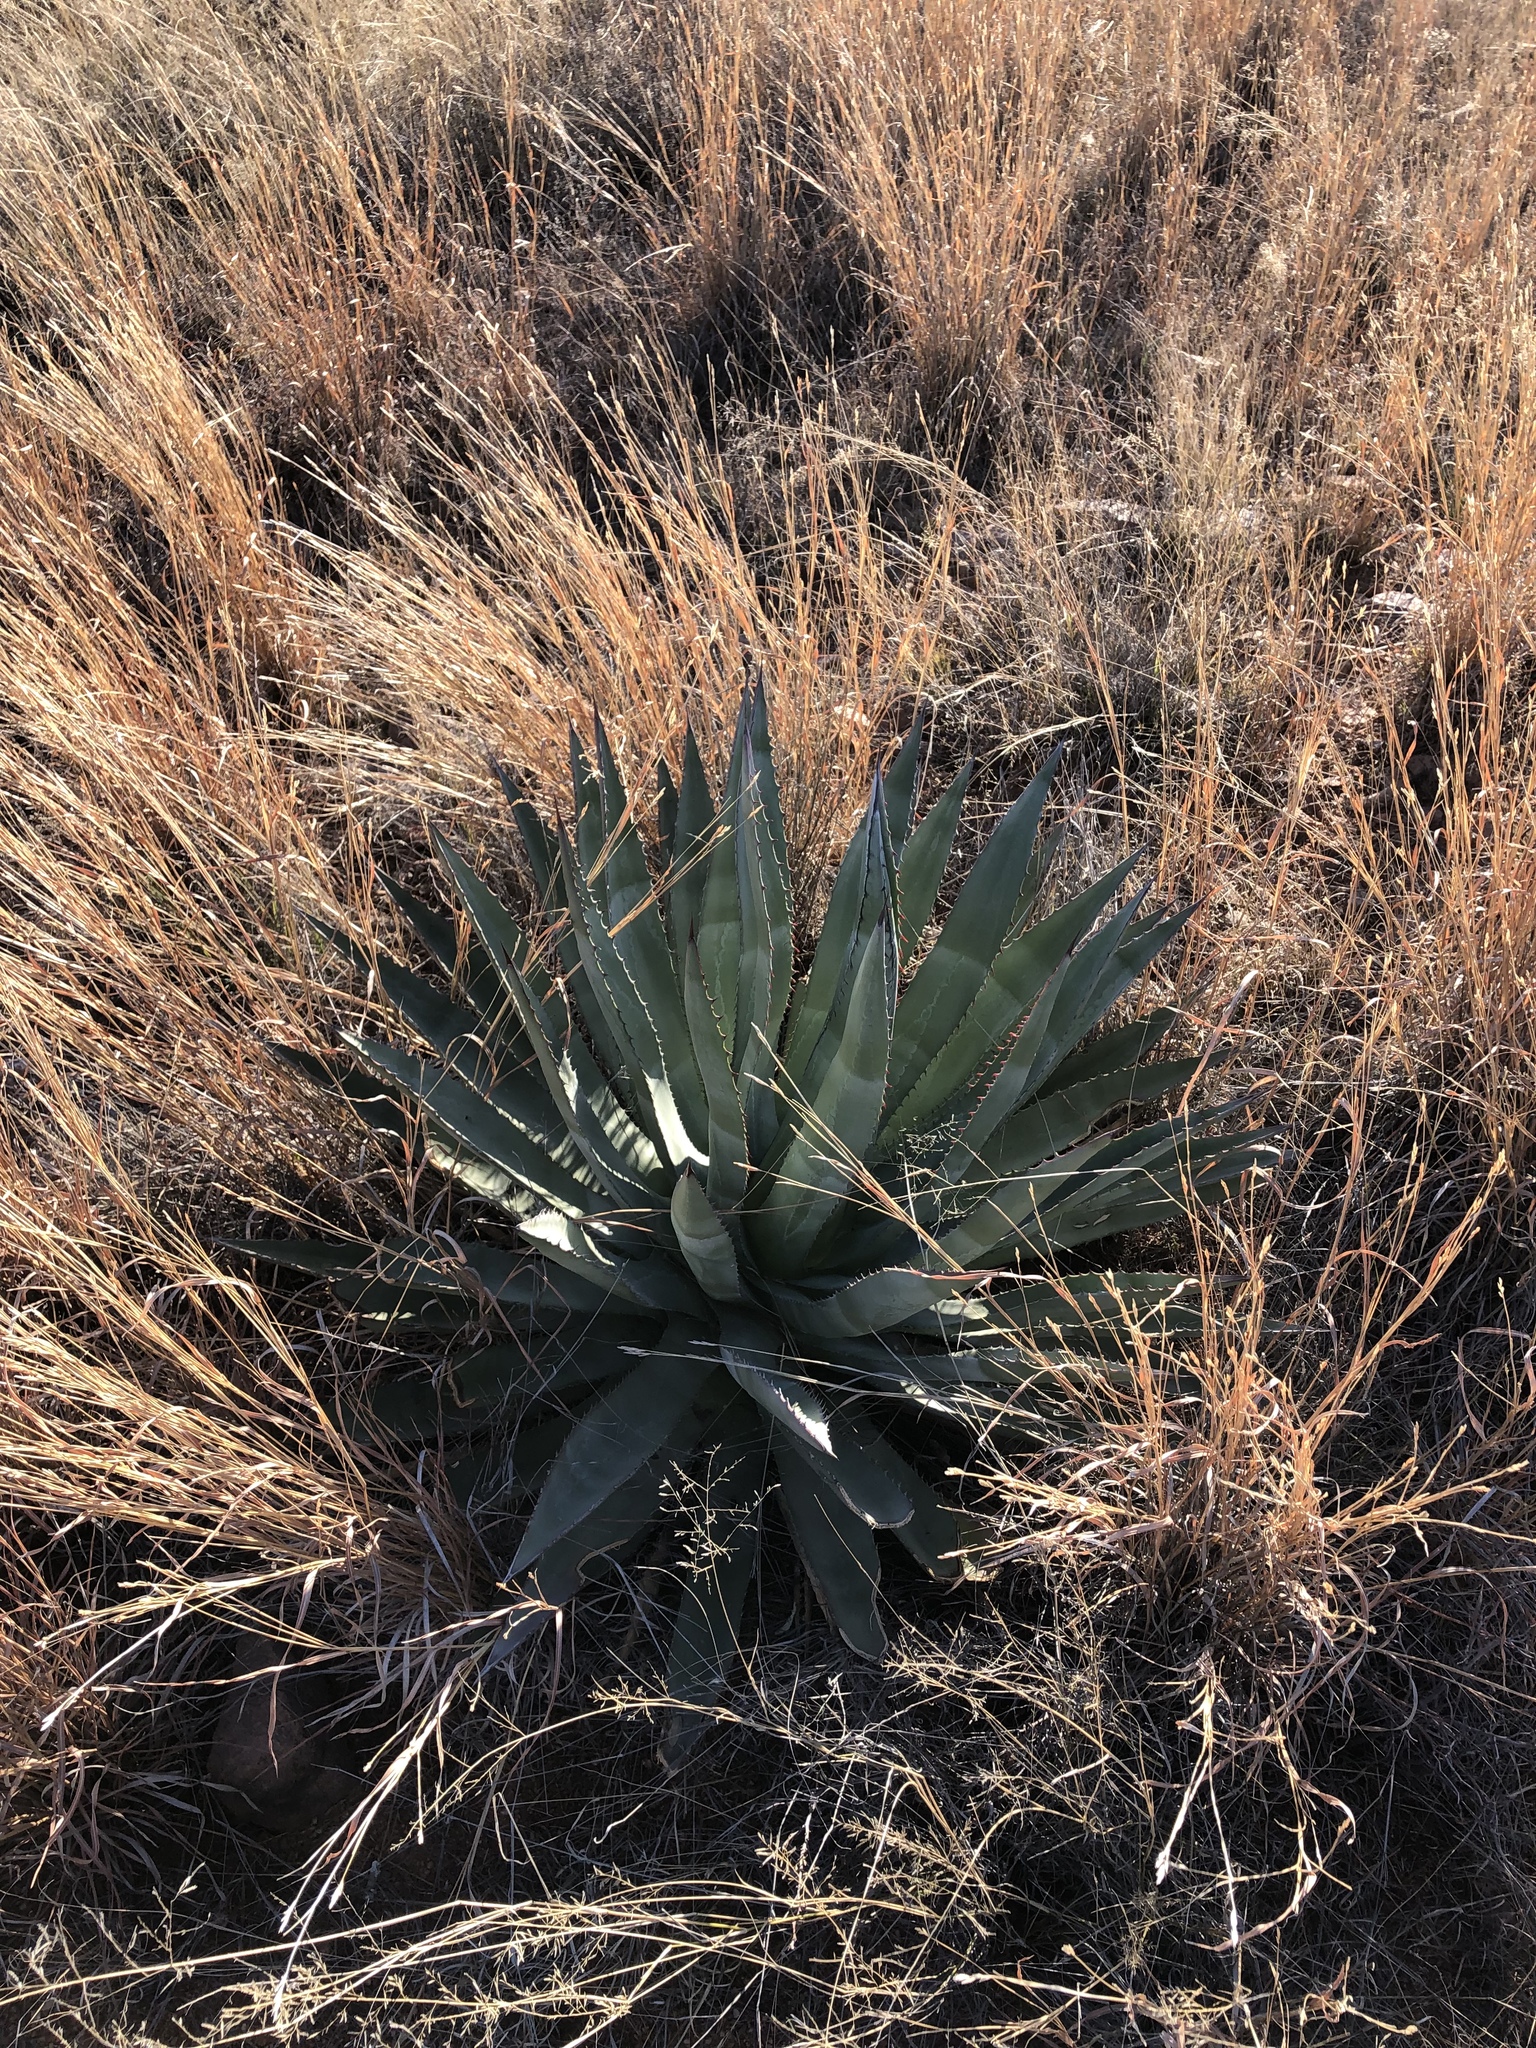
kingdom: Plantae
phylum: Tracheophyta
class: Liliopsida
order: Asparagales
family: Asparagaceae
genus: Agave
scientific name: Agave palmeri
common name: Palmer agave
